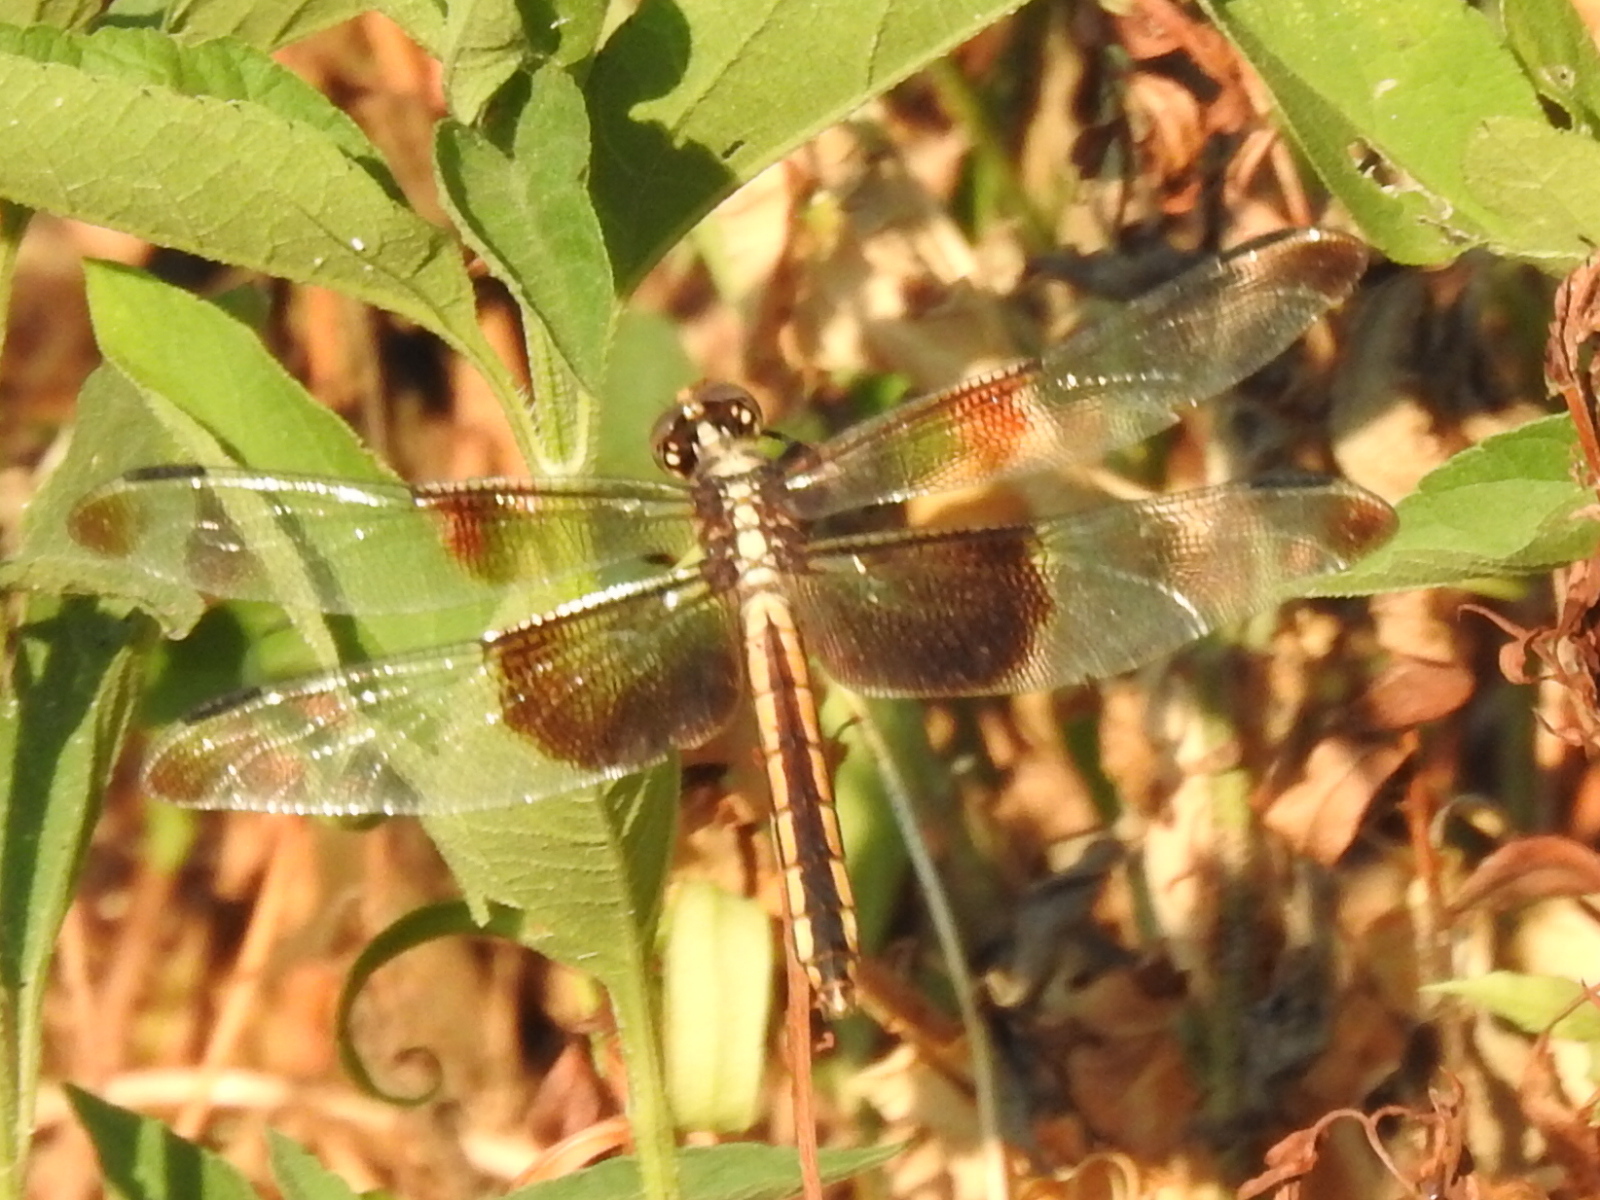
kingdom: Animalia
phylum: Arthropoda
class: Insecta
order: Odonata
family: Libellulidae
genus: Libellula
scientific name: Libellula luctuosa
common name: Widow skimmer
